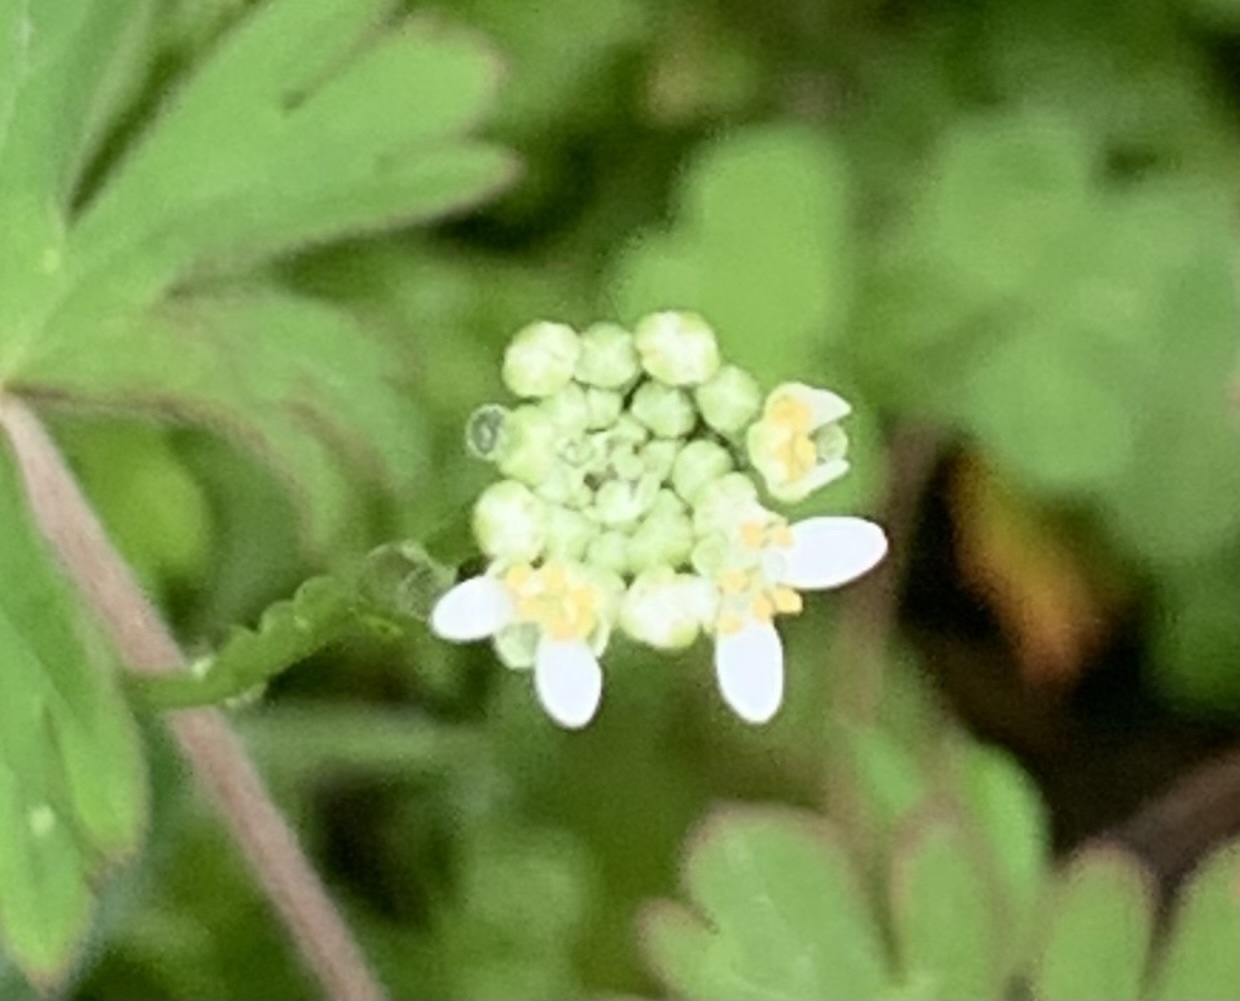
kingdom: Plantae
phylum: Tracheophyta
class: Magnoliopsida
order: Brassicales
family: Brassicaceae
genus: Teesdalia
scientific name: Teesdalia nudicaulis
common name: Shepherd's cress
